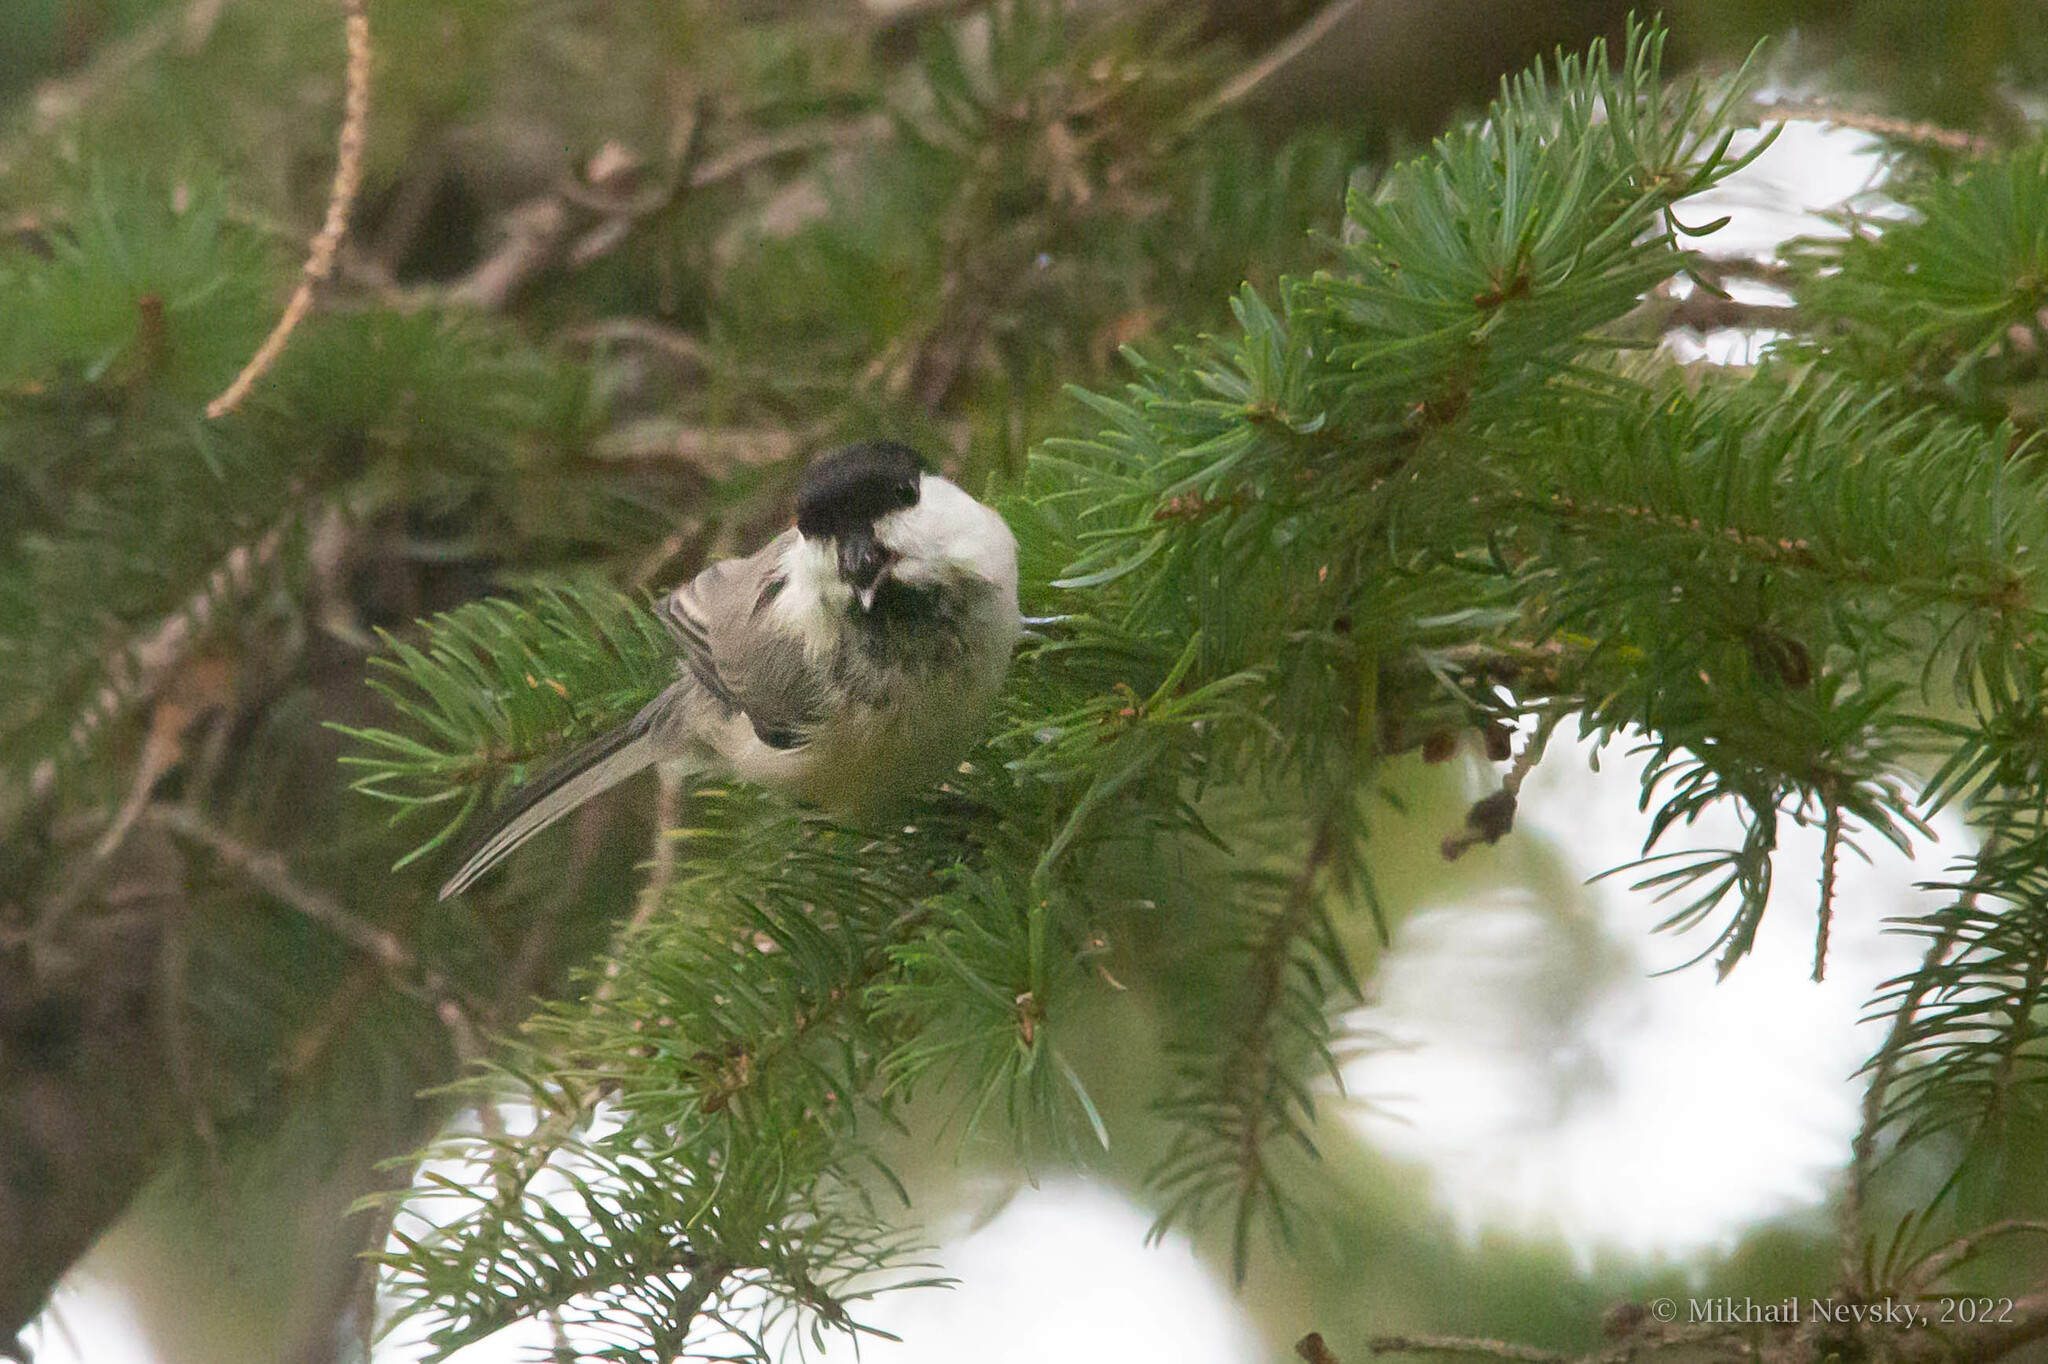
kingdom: Animalia
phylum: Chordata
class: Aves
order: Passeriformes
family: Paridae
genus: Poecile
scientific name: Poecile palustris
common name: Marsh tit
